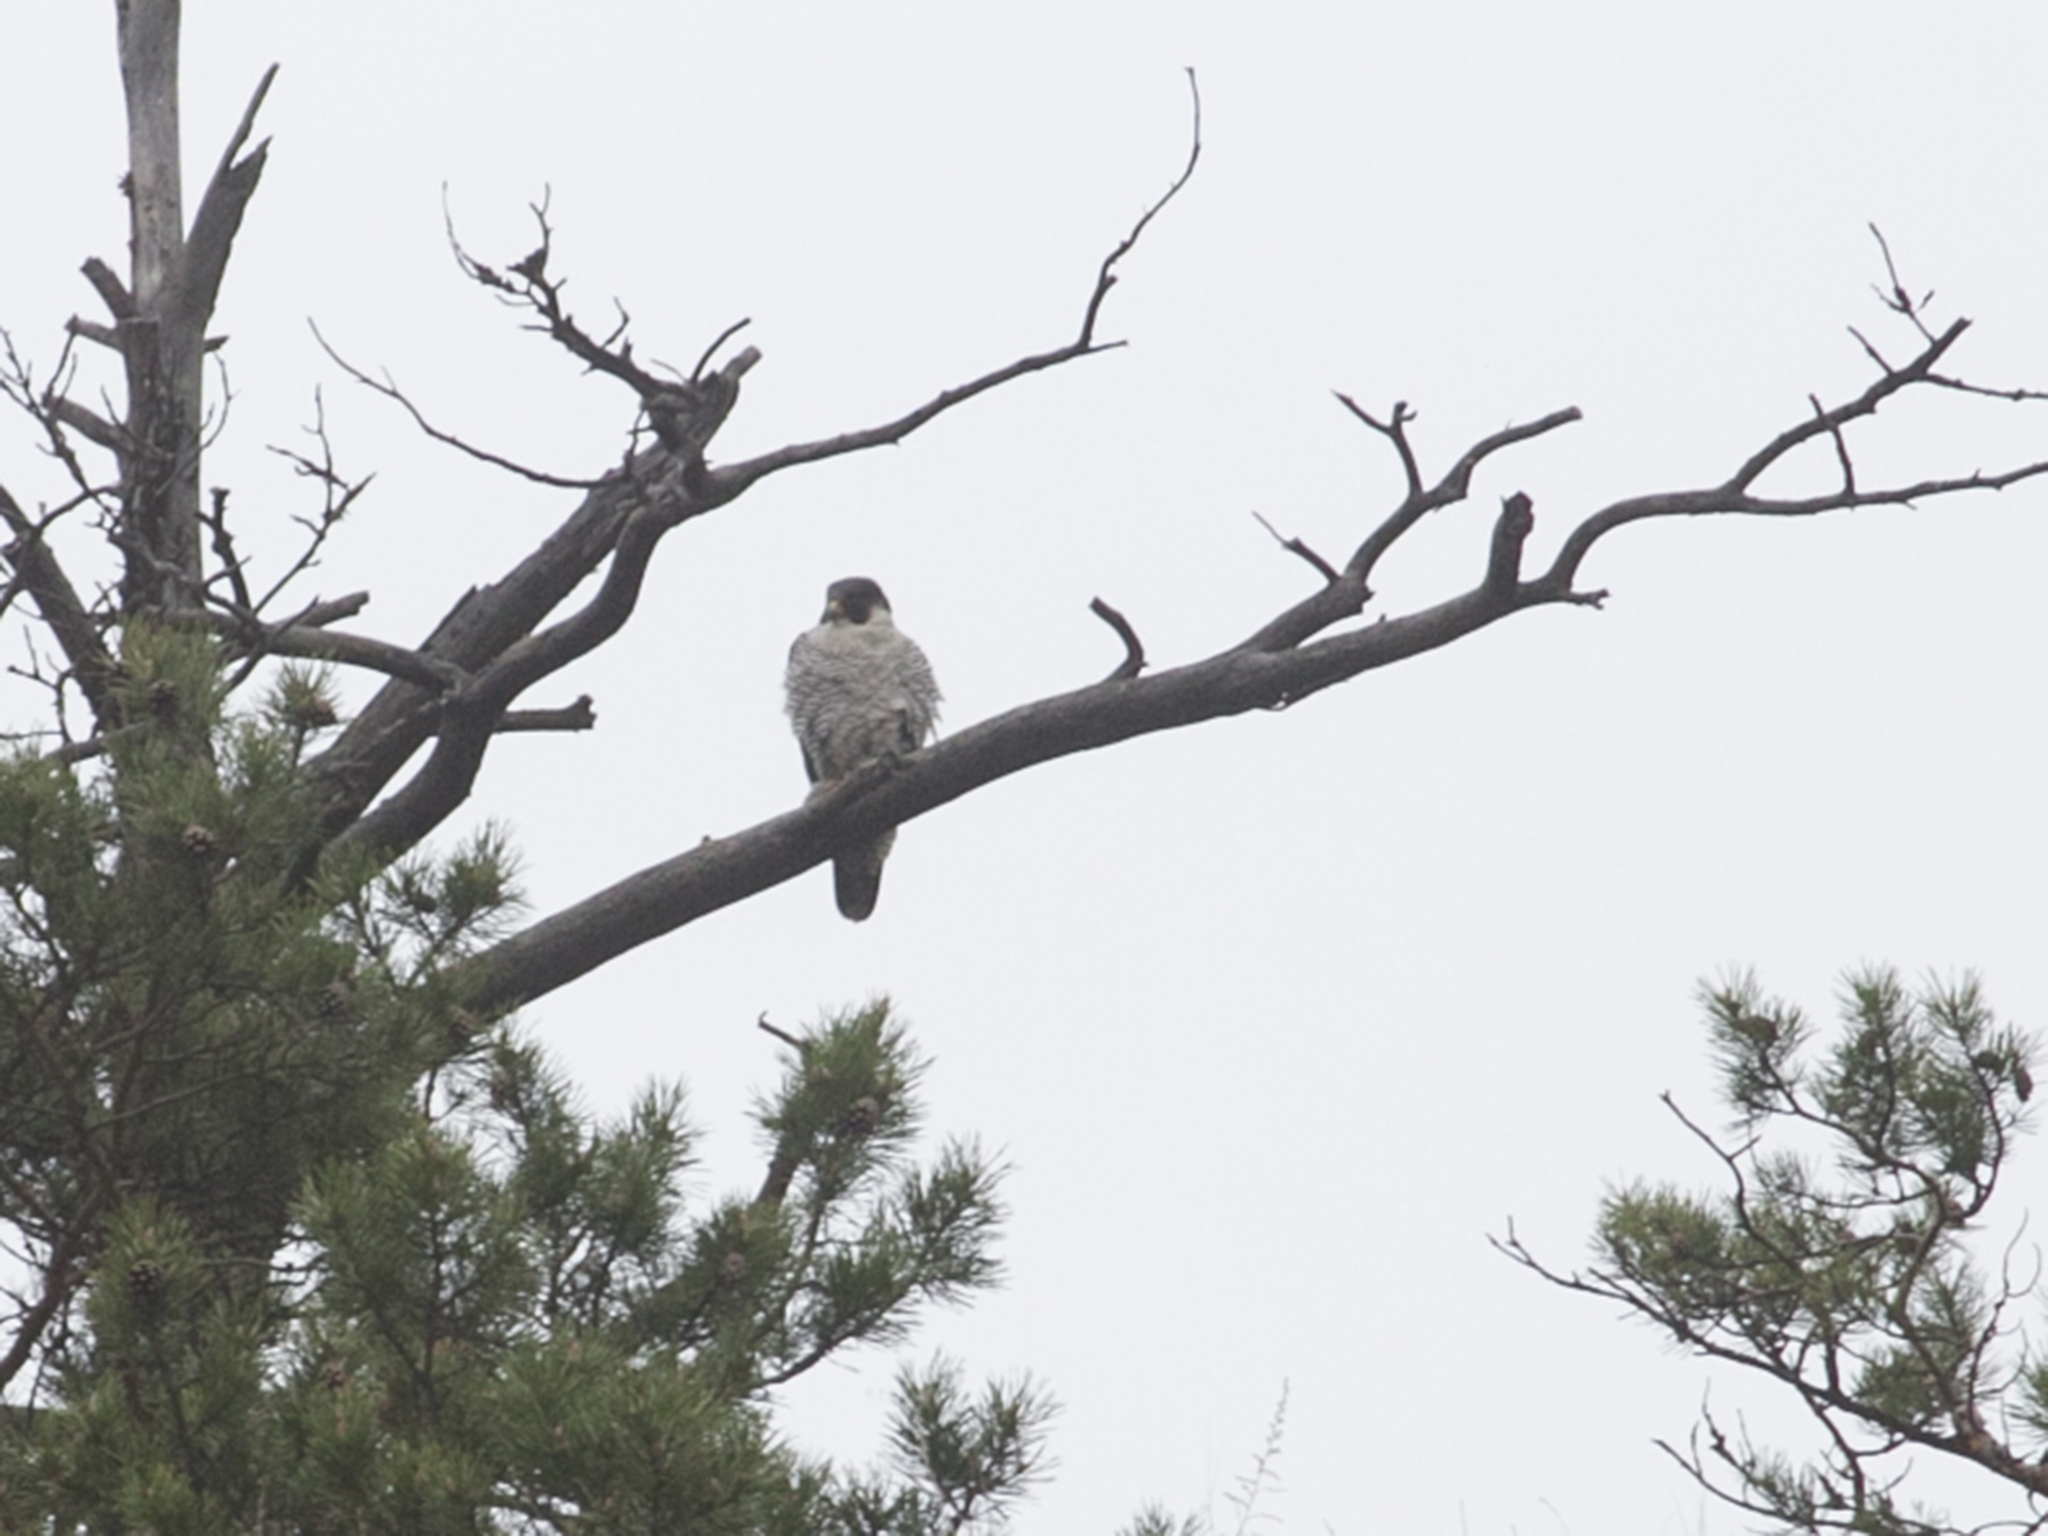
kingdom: Animalia
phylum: Chordata
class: Aves
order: Falconiformes
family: Falconidae
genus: Falco
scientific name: Falco peregrinus
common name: Peregrine falcon
